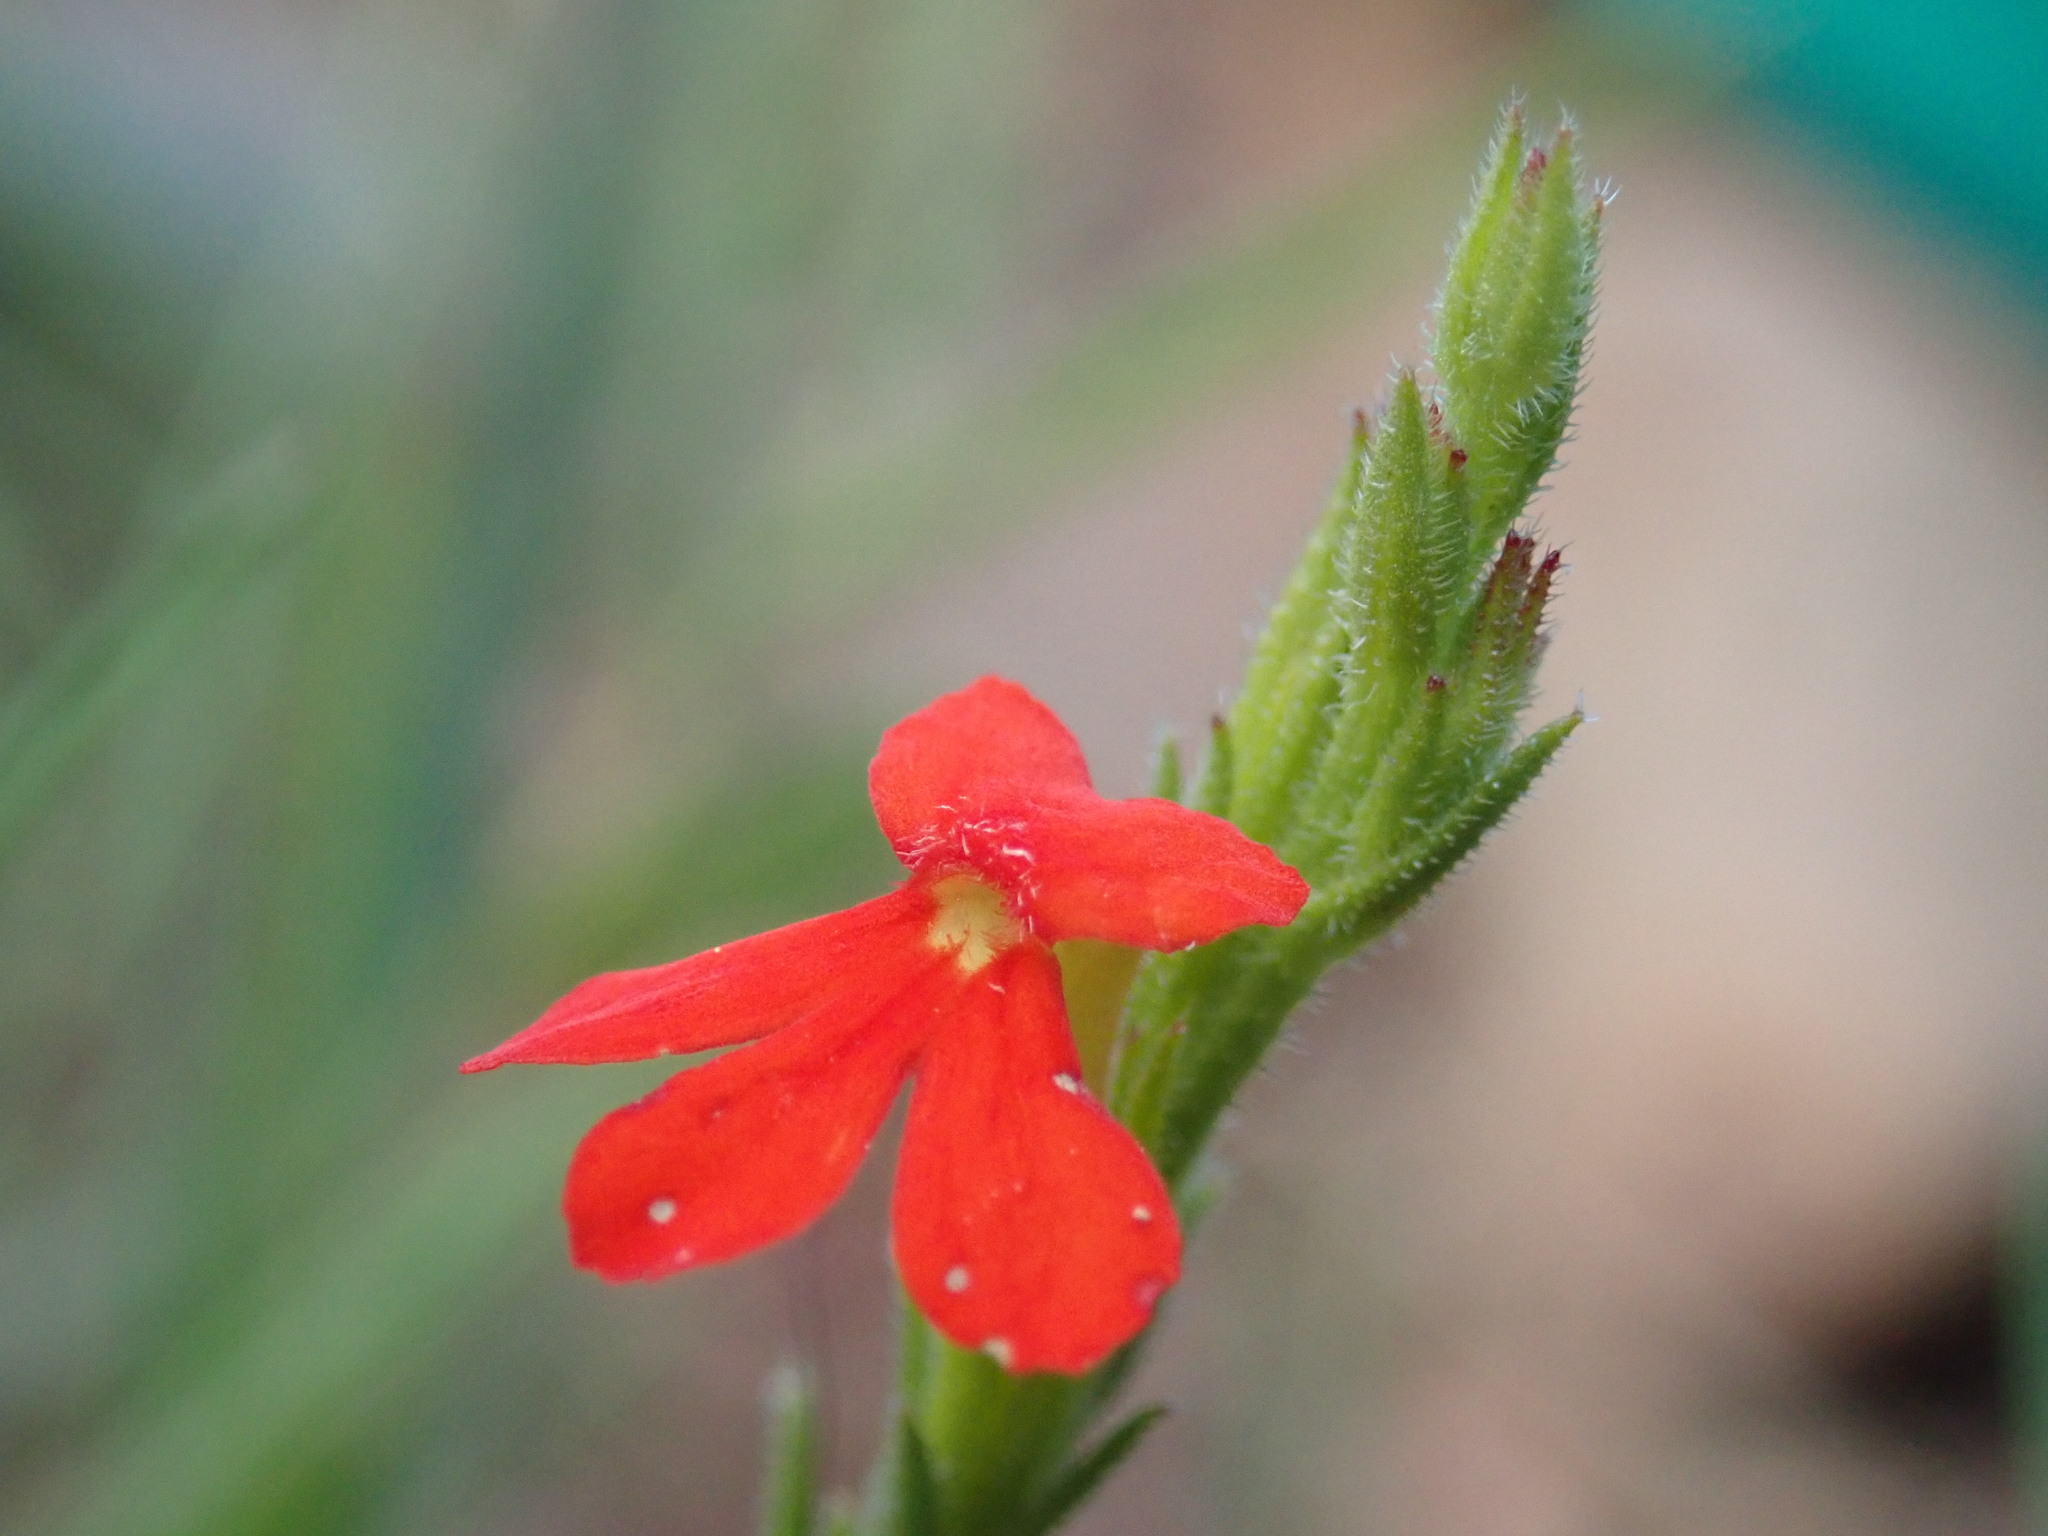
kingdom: Plantae
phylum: Tracheophyta
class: Magnoliopsida
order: Lamiales
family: Orobanchaceae
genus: Striga
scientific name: Striga asiatica
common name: Asiatic witchweed
